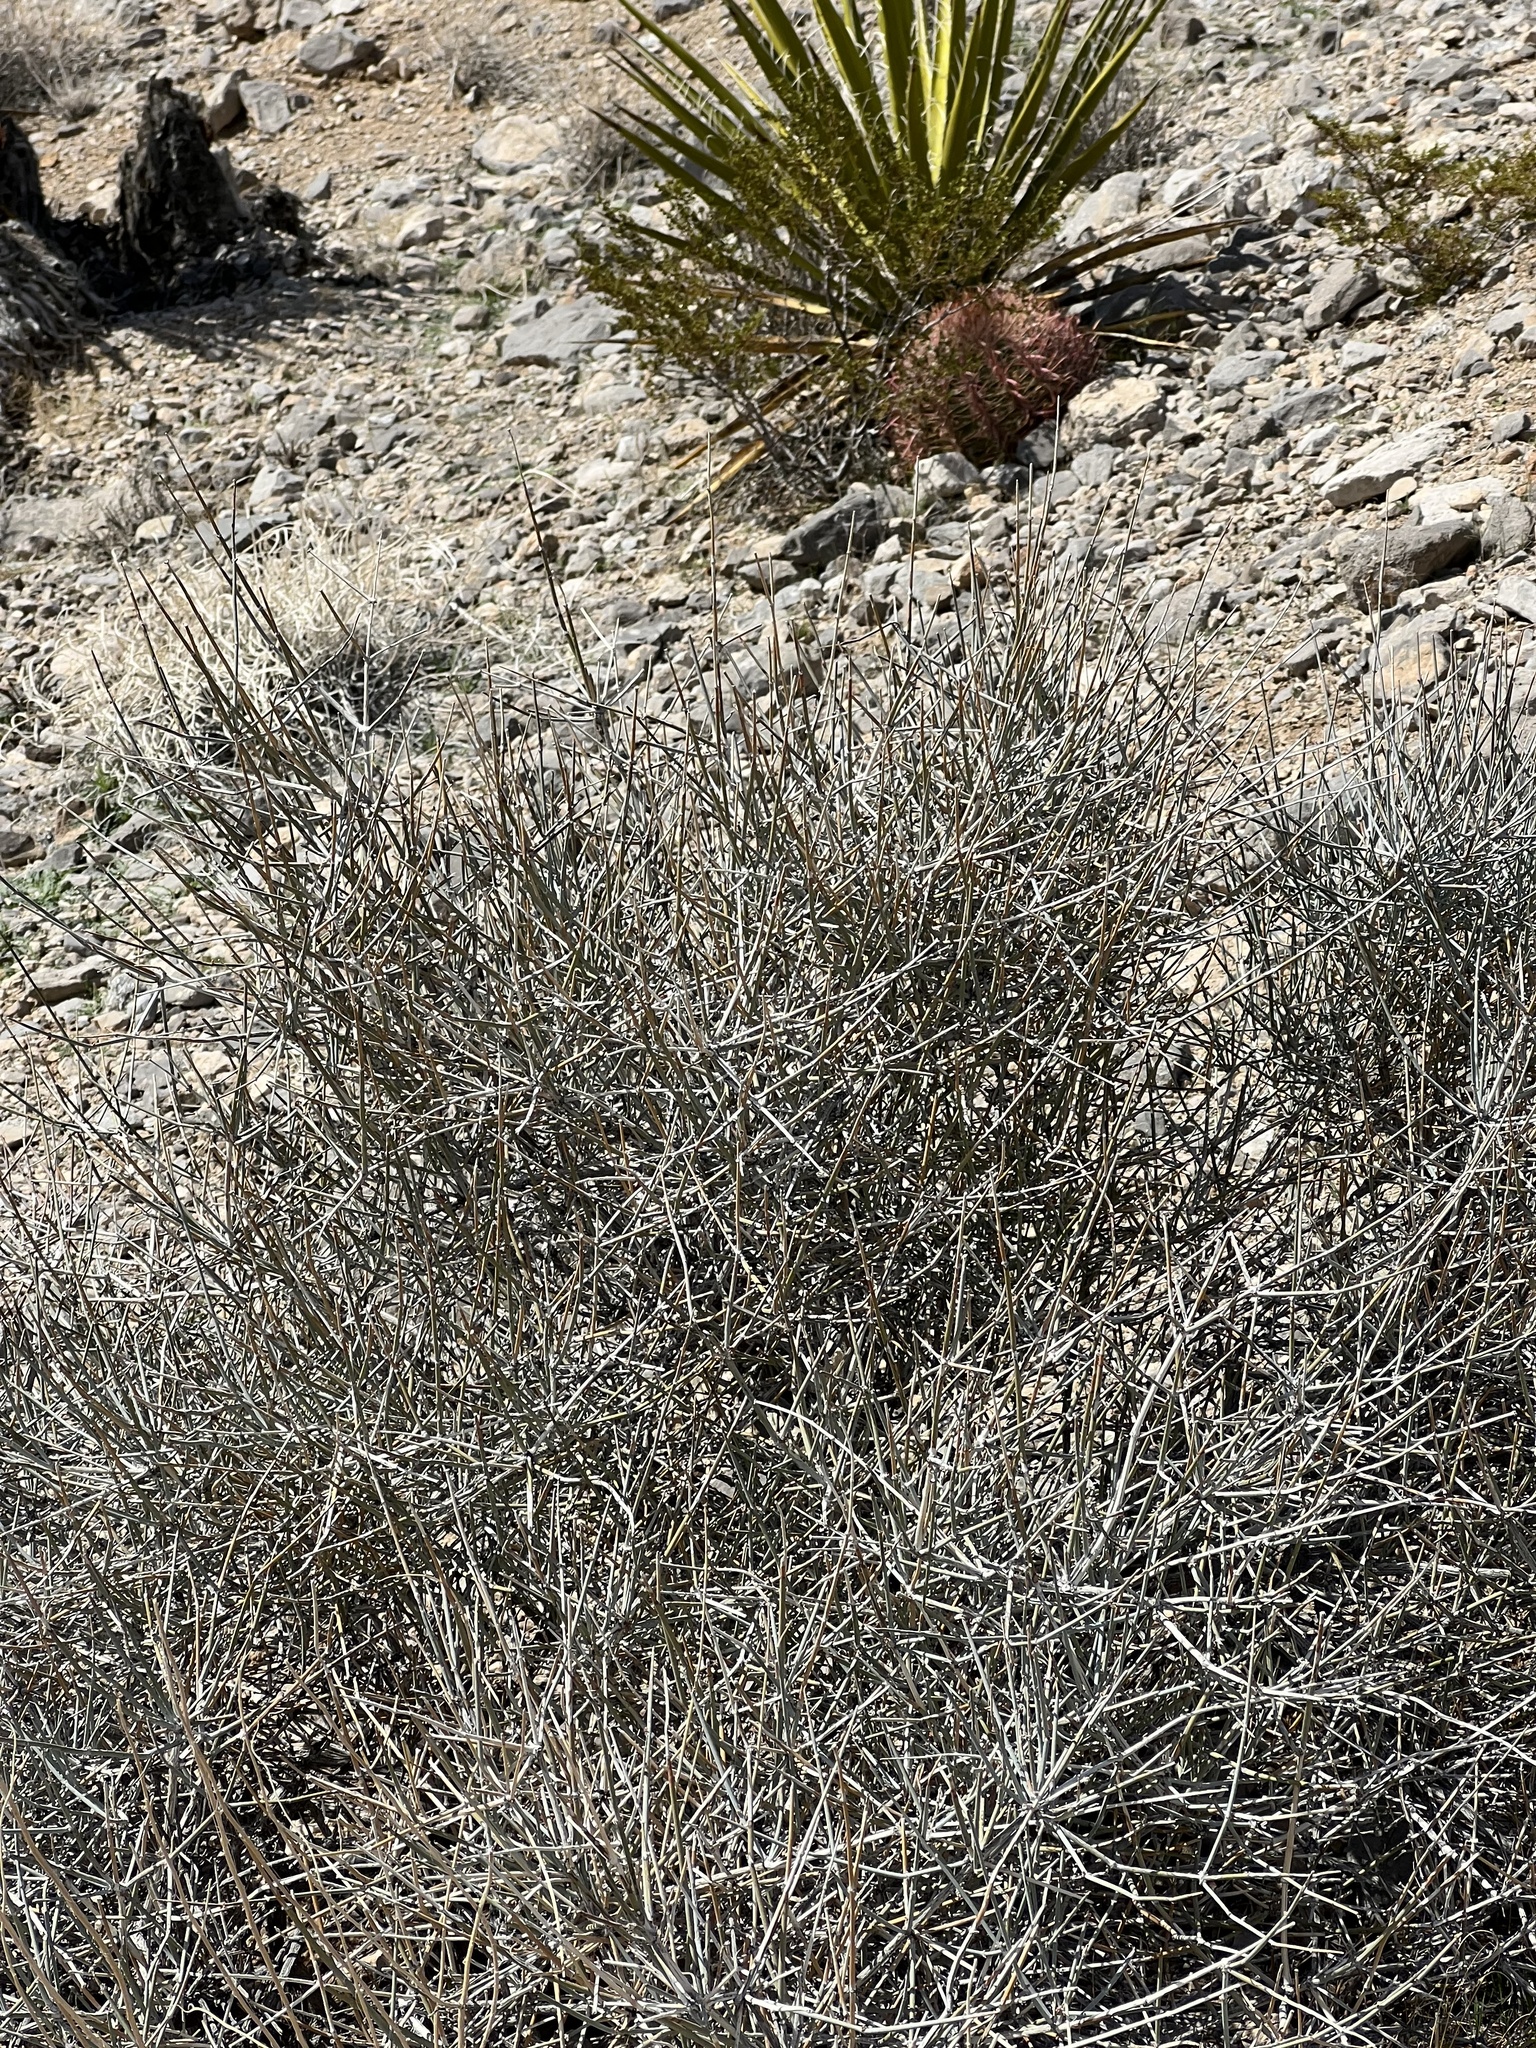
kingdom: Plantae
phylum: Tracheophyta
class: Gnetopsida
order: Ephedrales
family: Ephedraceae
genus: Ephedra
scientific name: Ephedra nevadensis
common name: Gray ephedra
